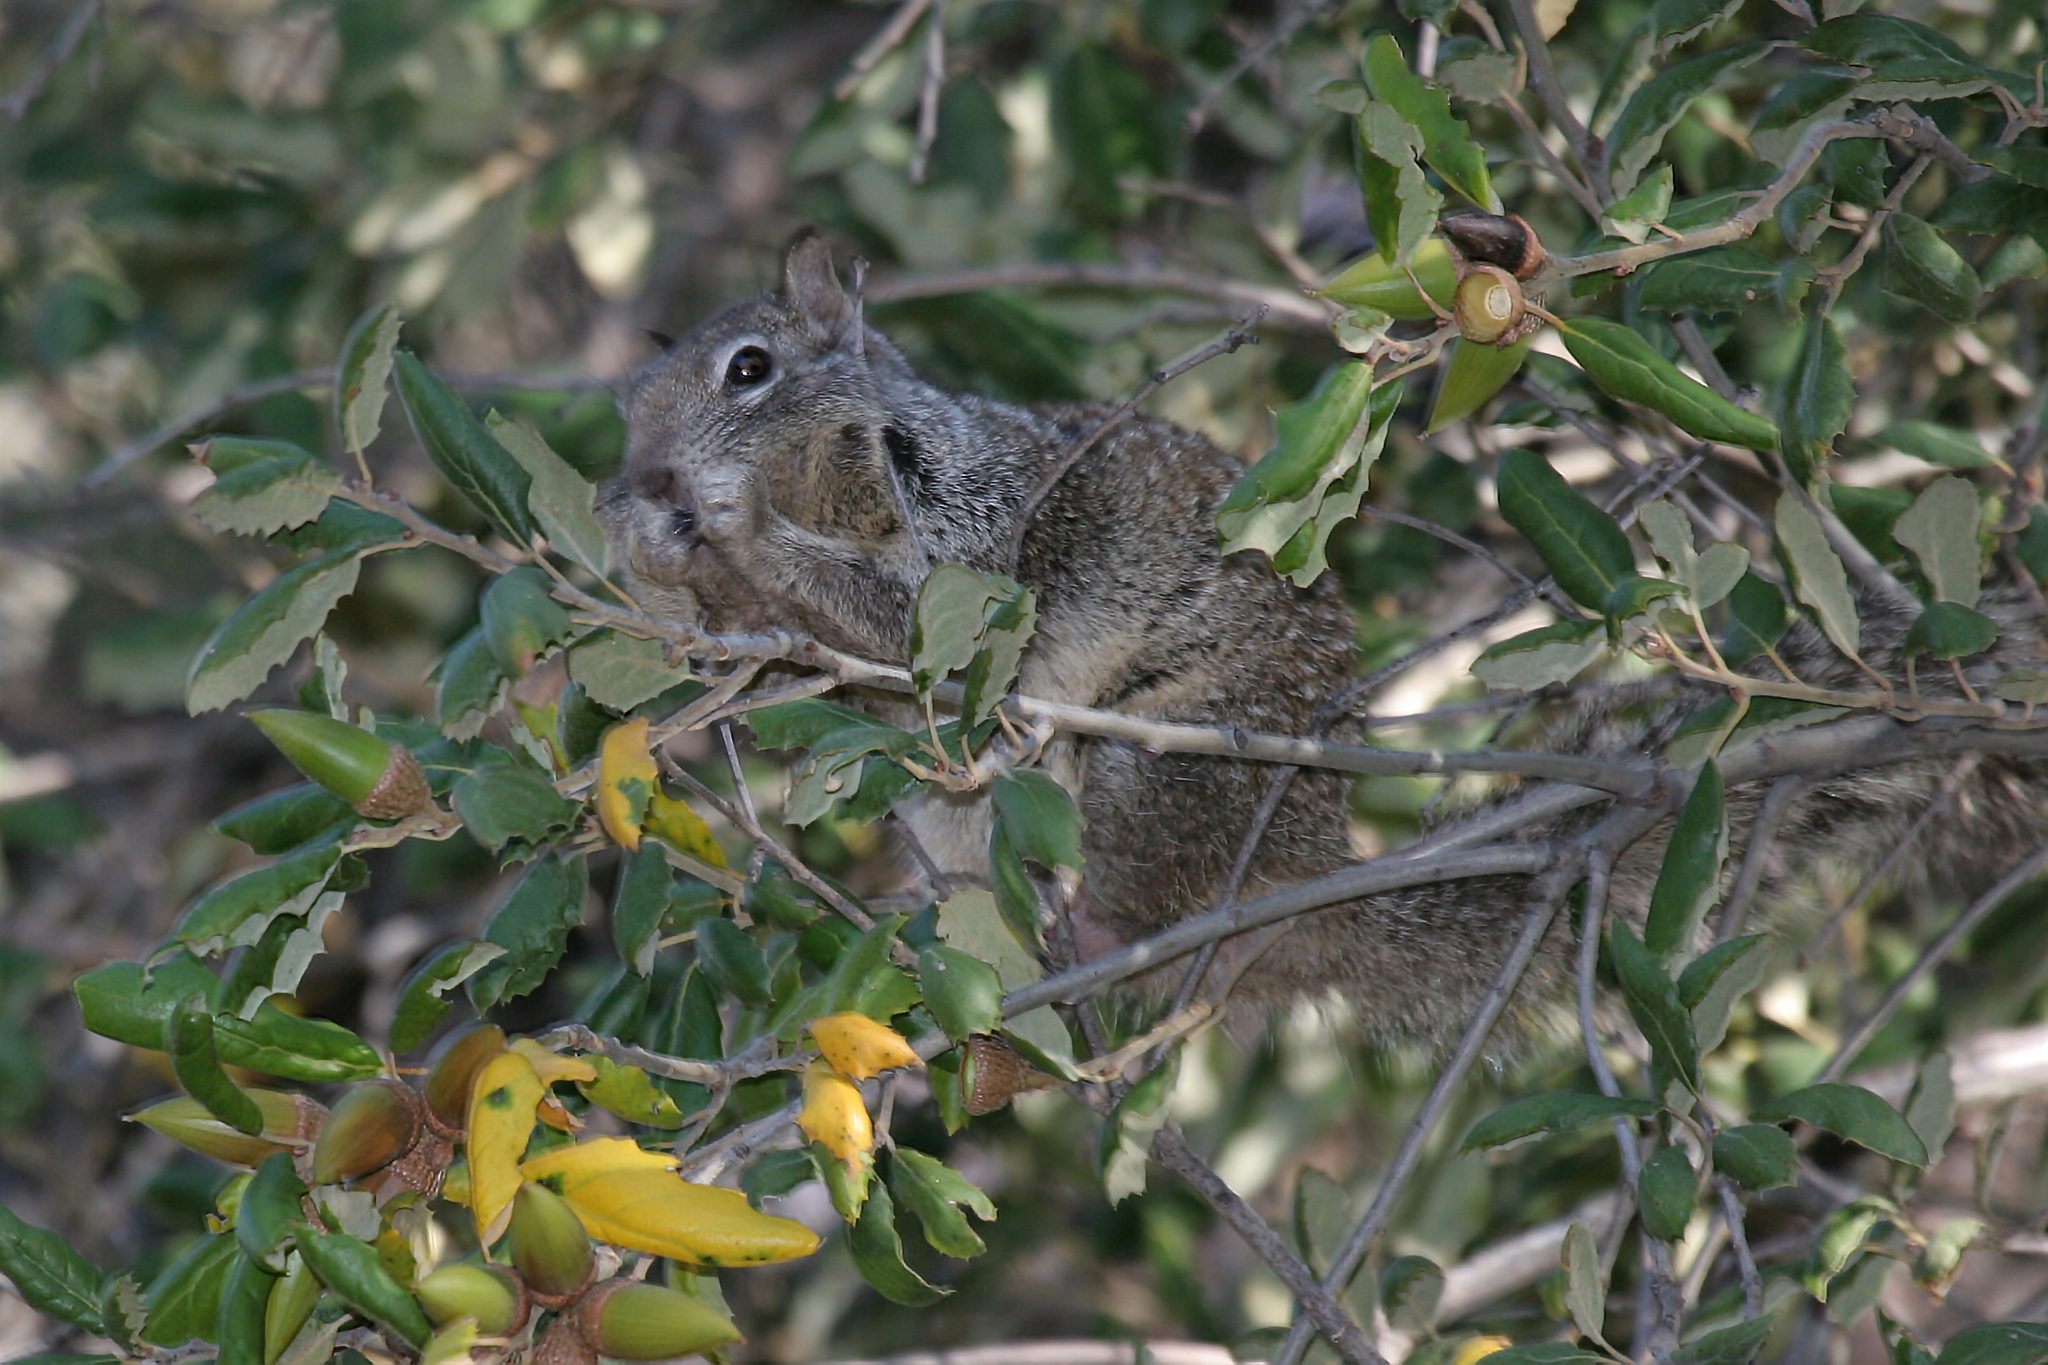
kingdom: Animalia
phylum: Chordata
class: Mammalia
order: Rodentia
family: Sciuridae
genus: Otospermophilus
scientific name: Otospermophilus beecheyi
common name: California ground squirrel
